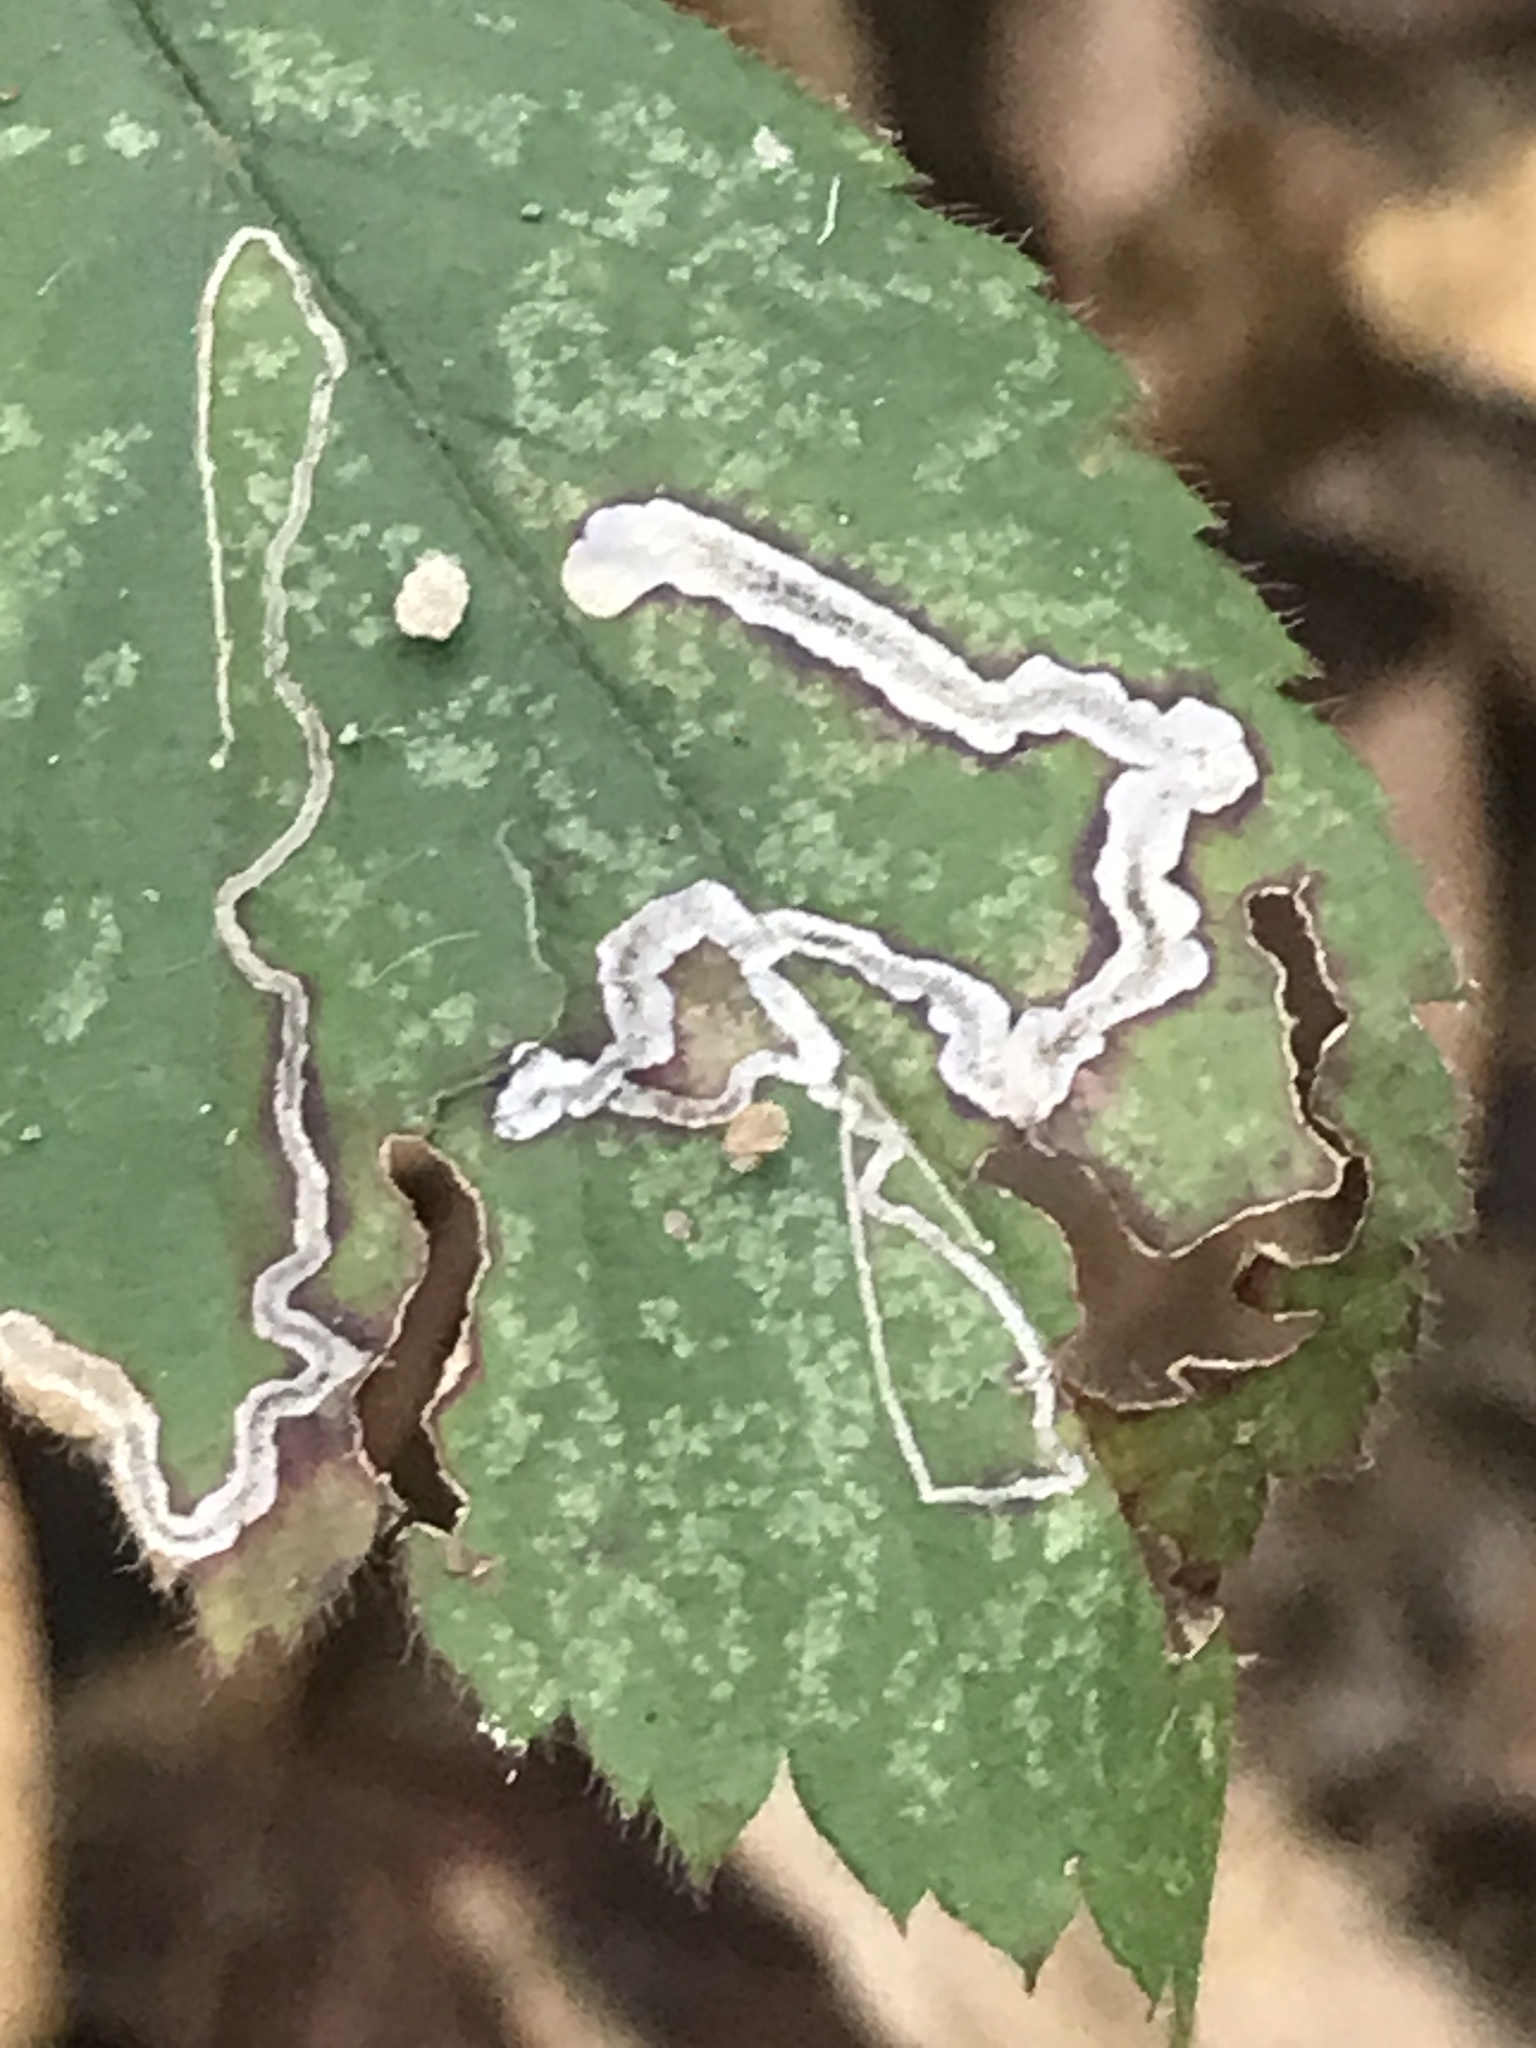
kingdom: Animalia
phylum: Arthropoda
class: Insecta
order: Lepidoptera
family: Nepticulidae
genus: Stigmella
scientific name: Stigmella villosella
